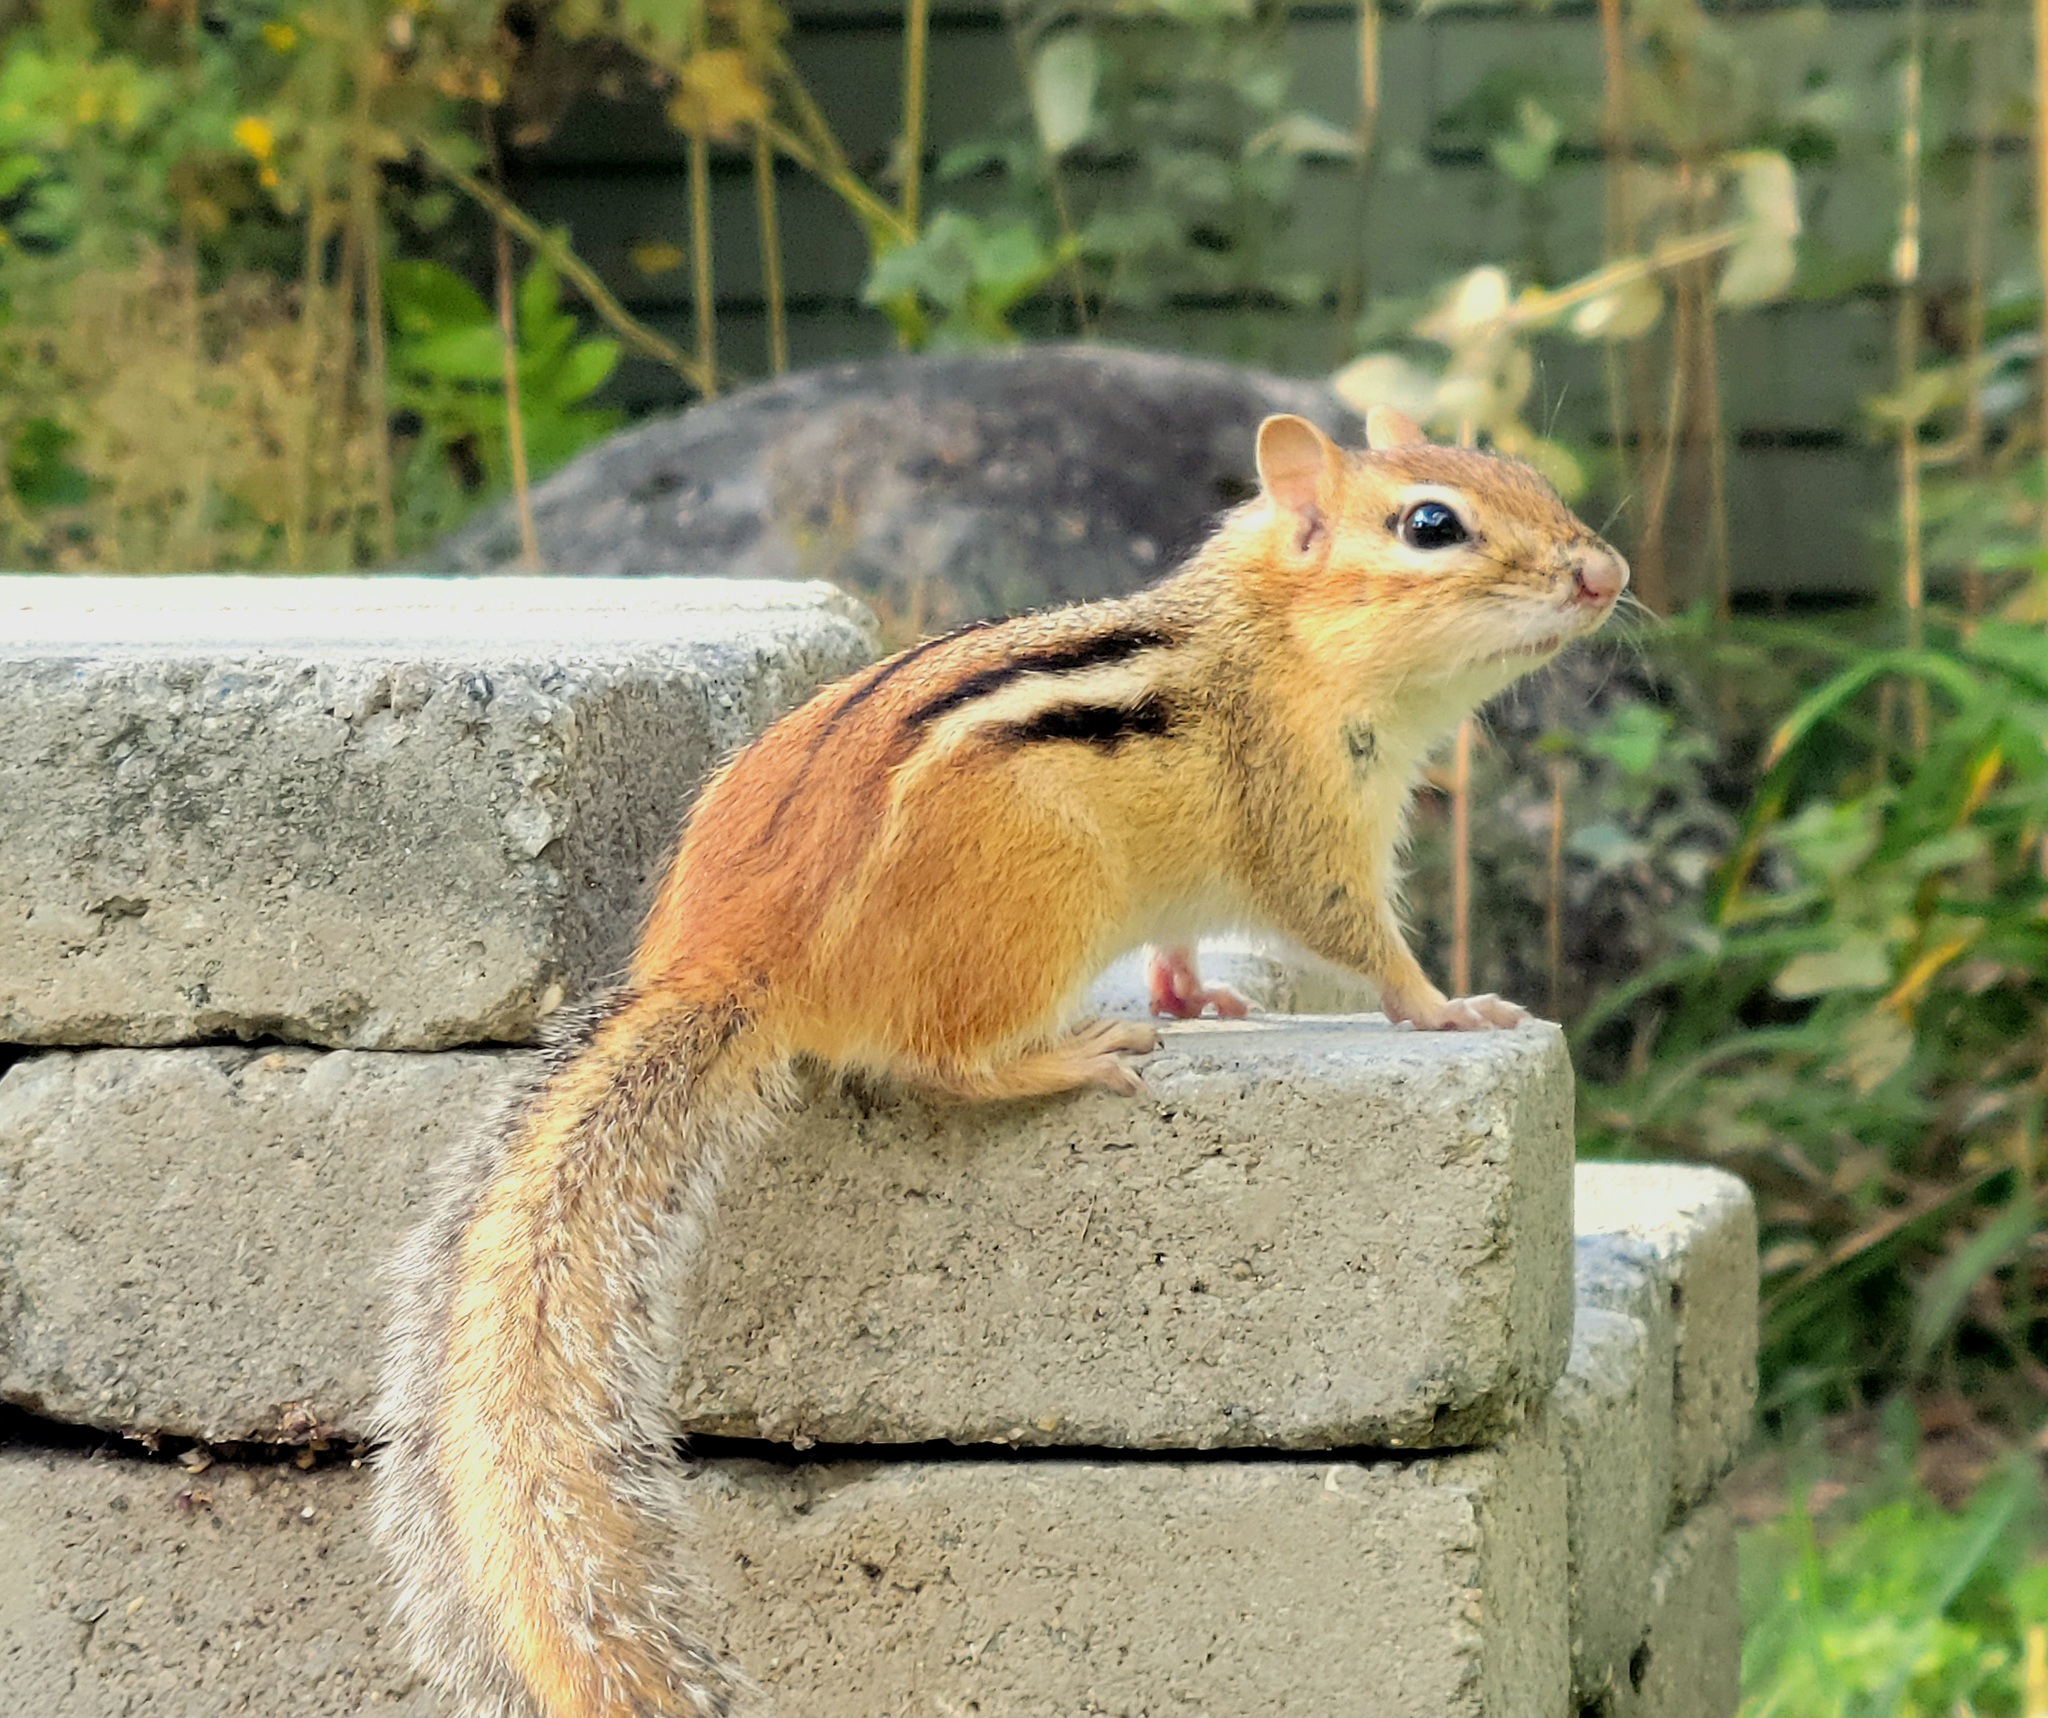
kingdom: Animalia
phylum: Chordata
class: Mammalia
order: Rodentia
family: Sciuridae
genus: Tamias
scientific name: Tamias striatus
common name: Eastern chipmunk
